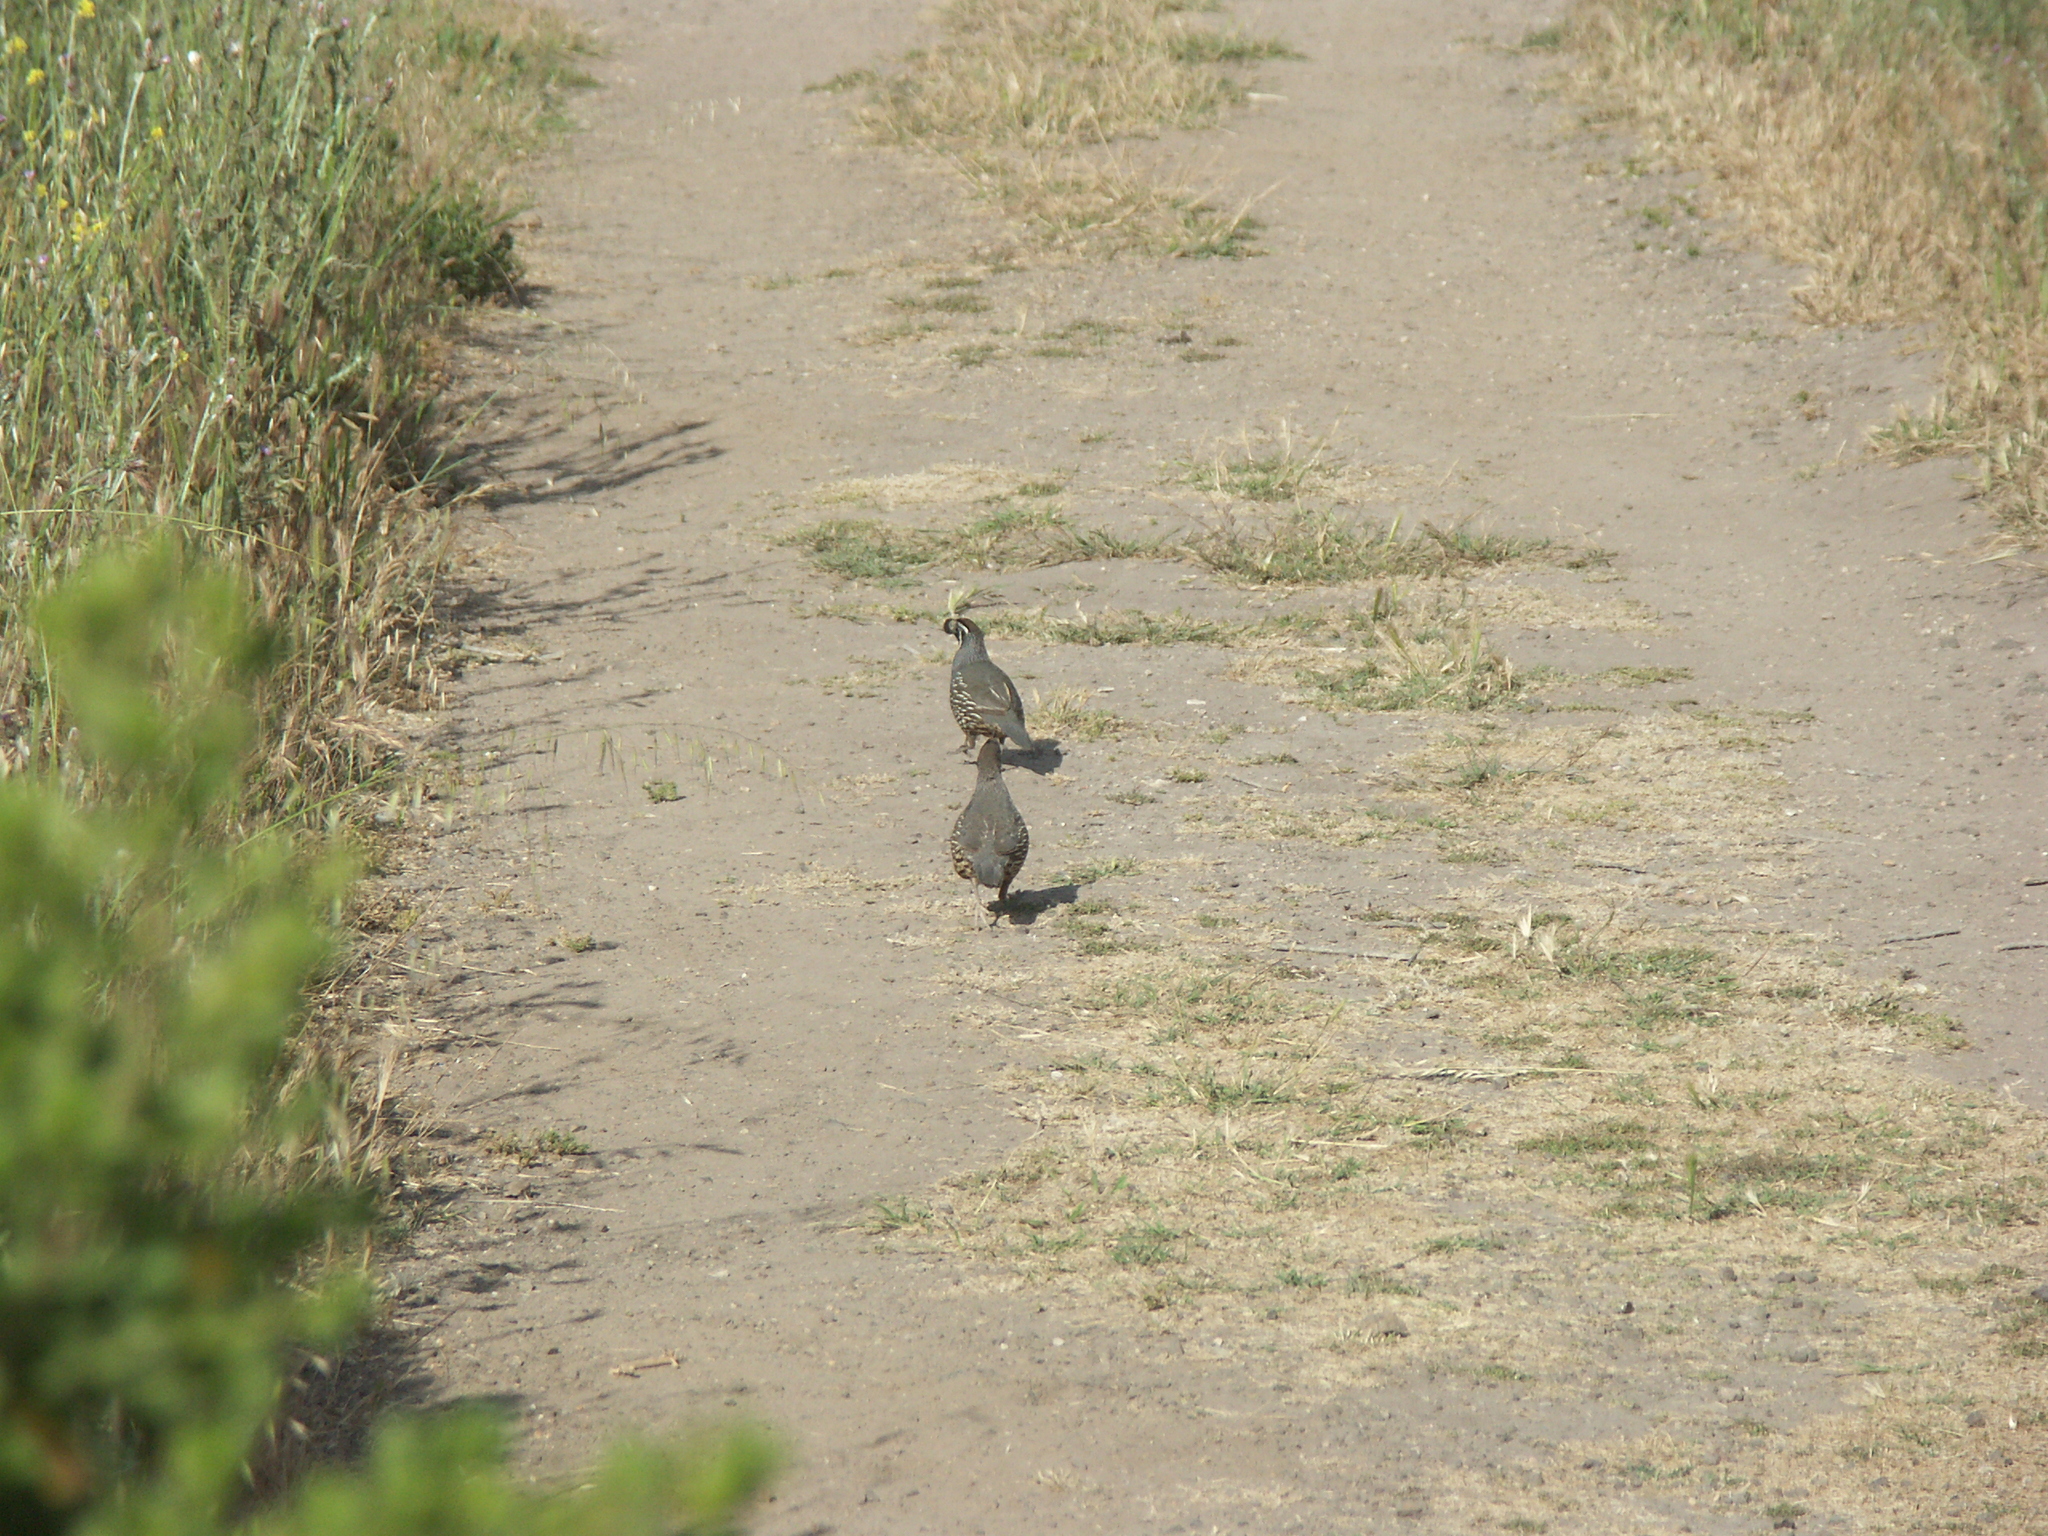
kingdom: Animalia
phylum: Chordata
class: Aves
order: Galliformes
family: Odontophoridae
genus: Callipepla
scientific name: Callipepla californica
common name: California quail
